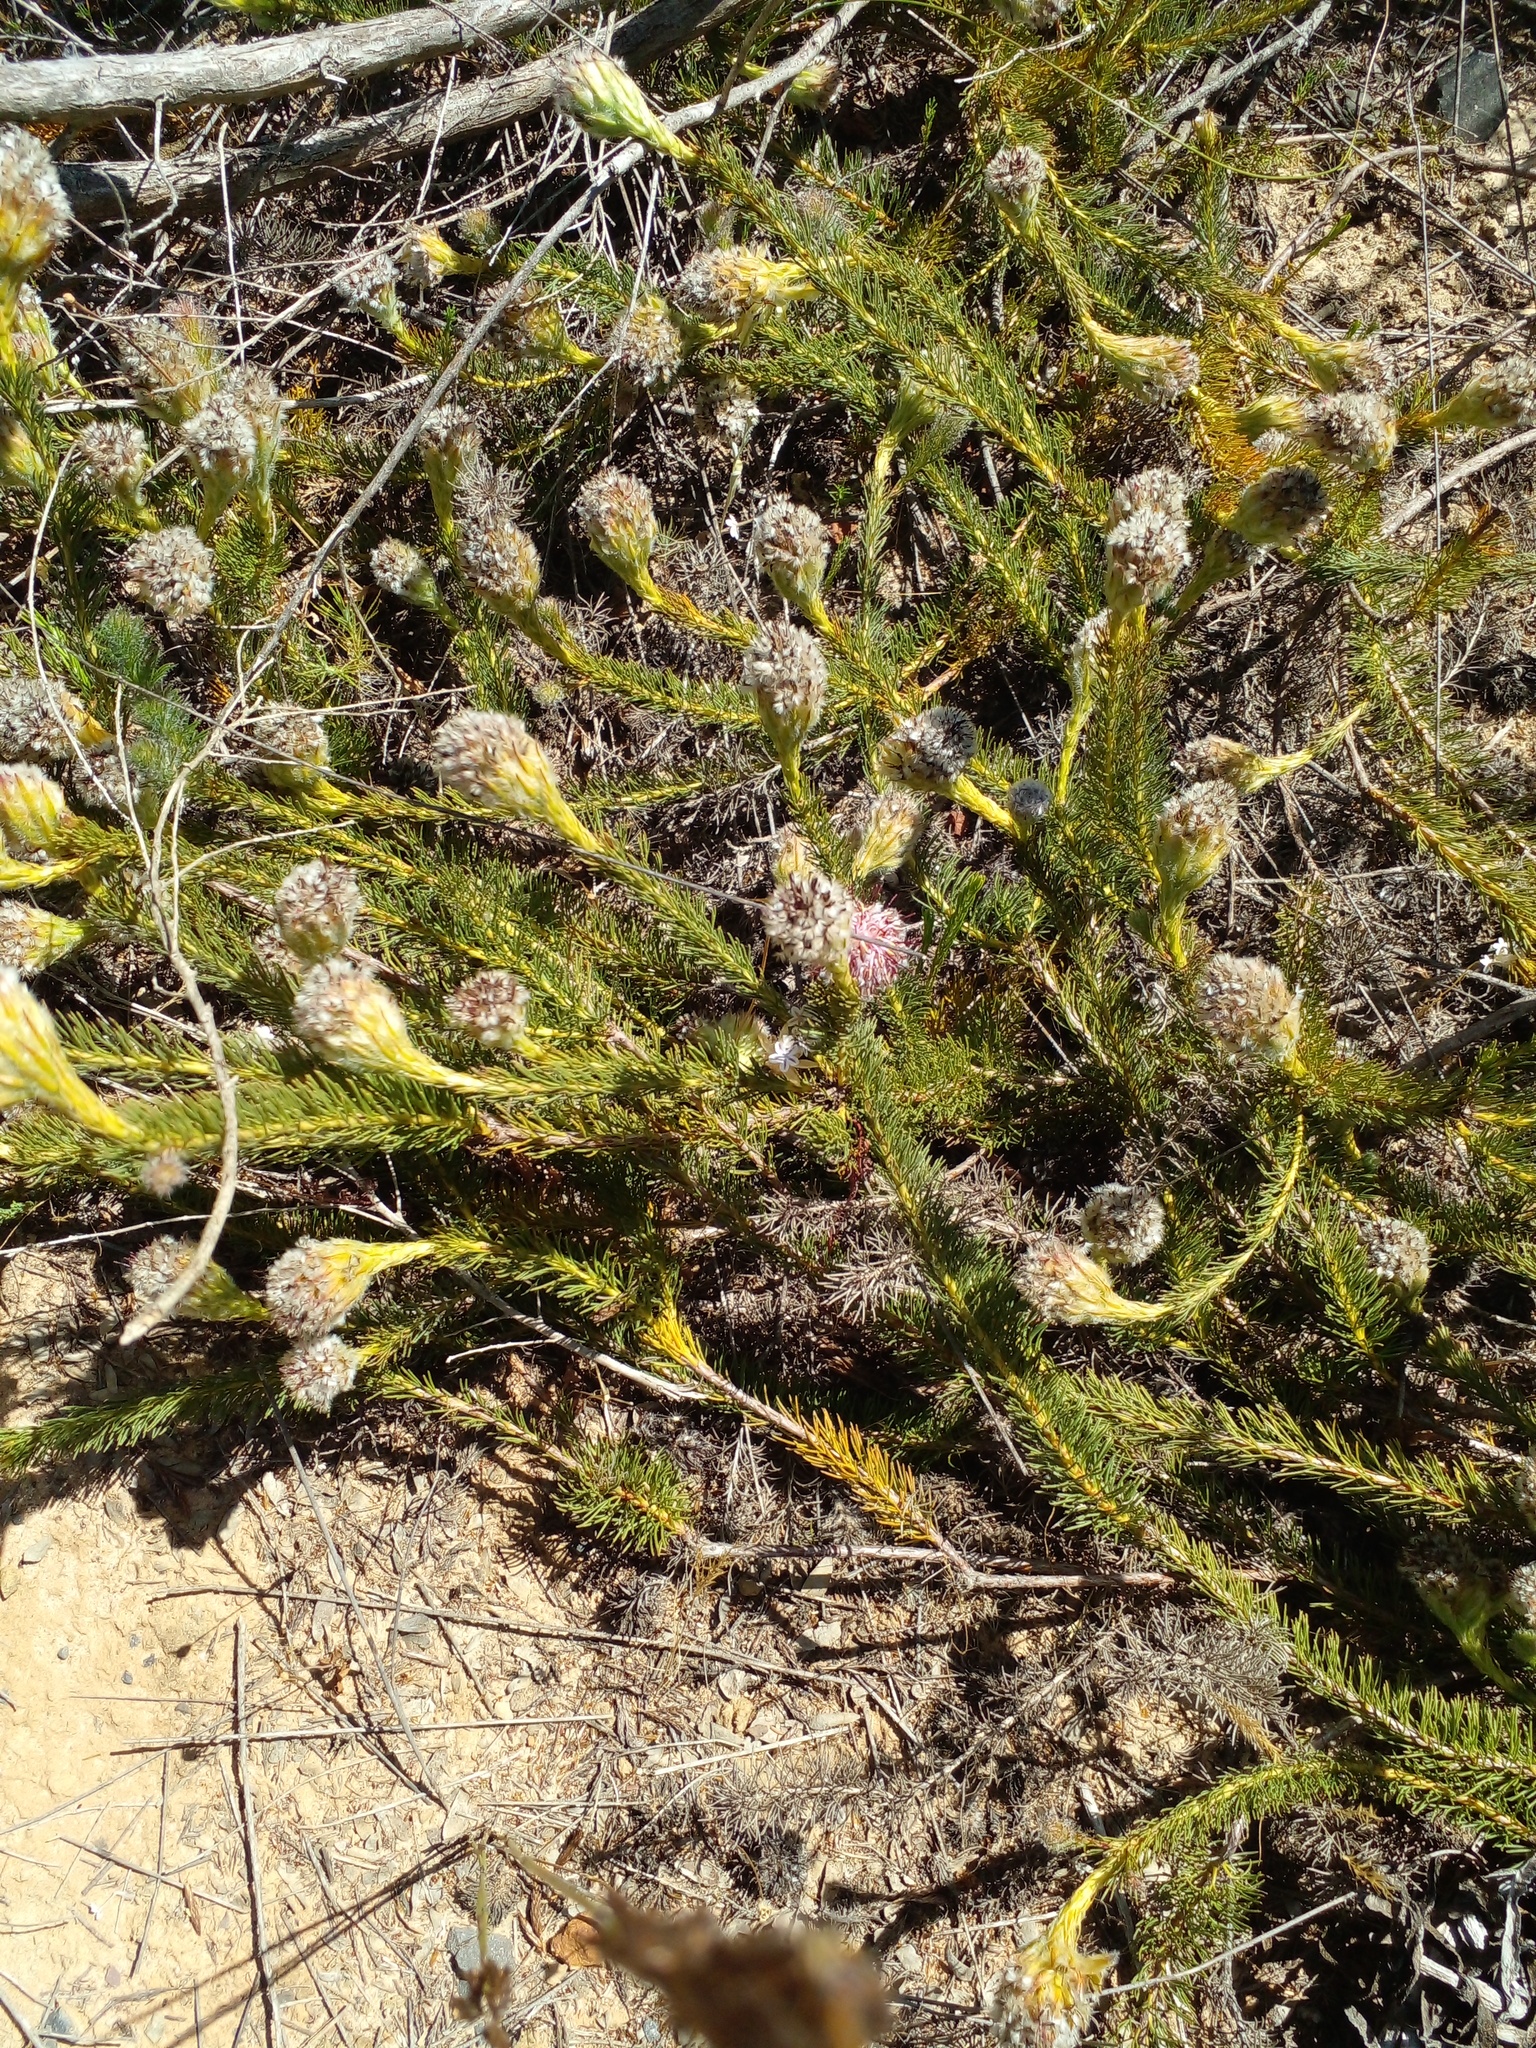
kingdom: Plantae
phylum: Tracheophyta
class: Magnoliopsida
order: Proteales
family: Proteaceae
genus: Serruria
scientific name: Serruria trilopha
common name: Trident spiderhead
